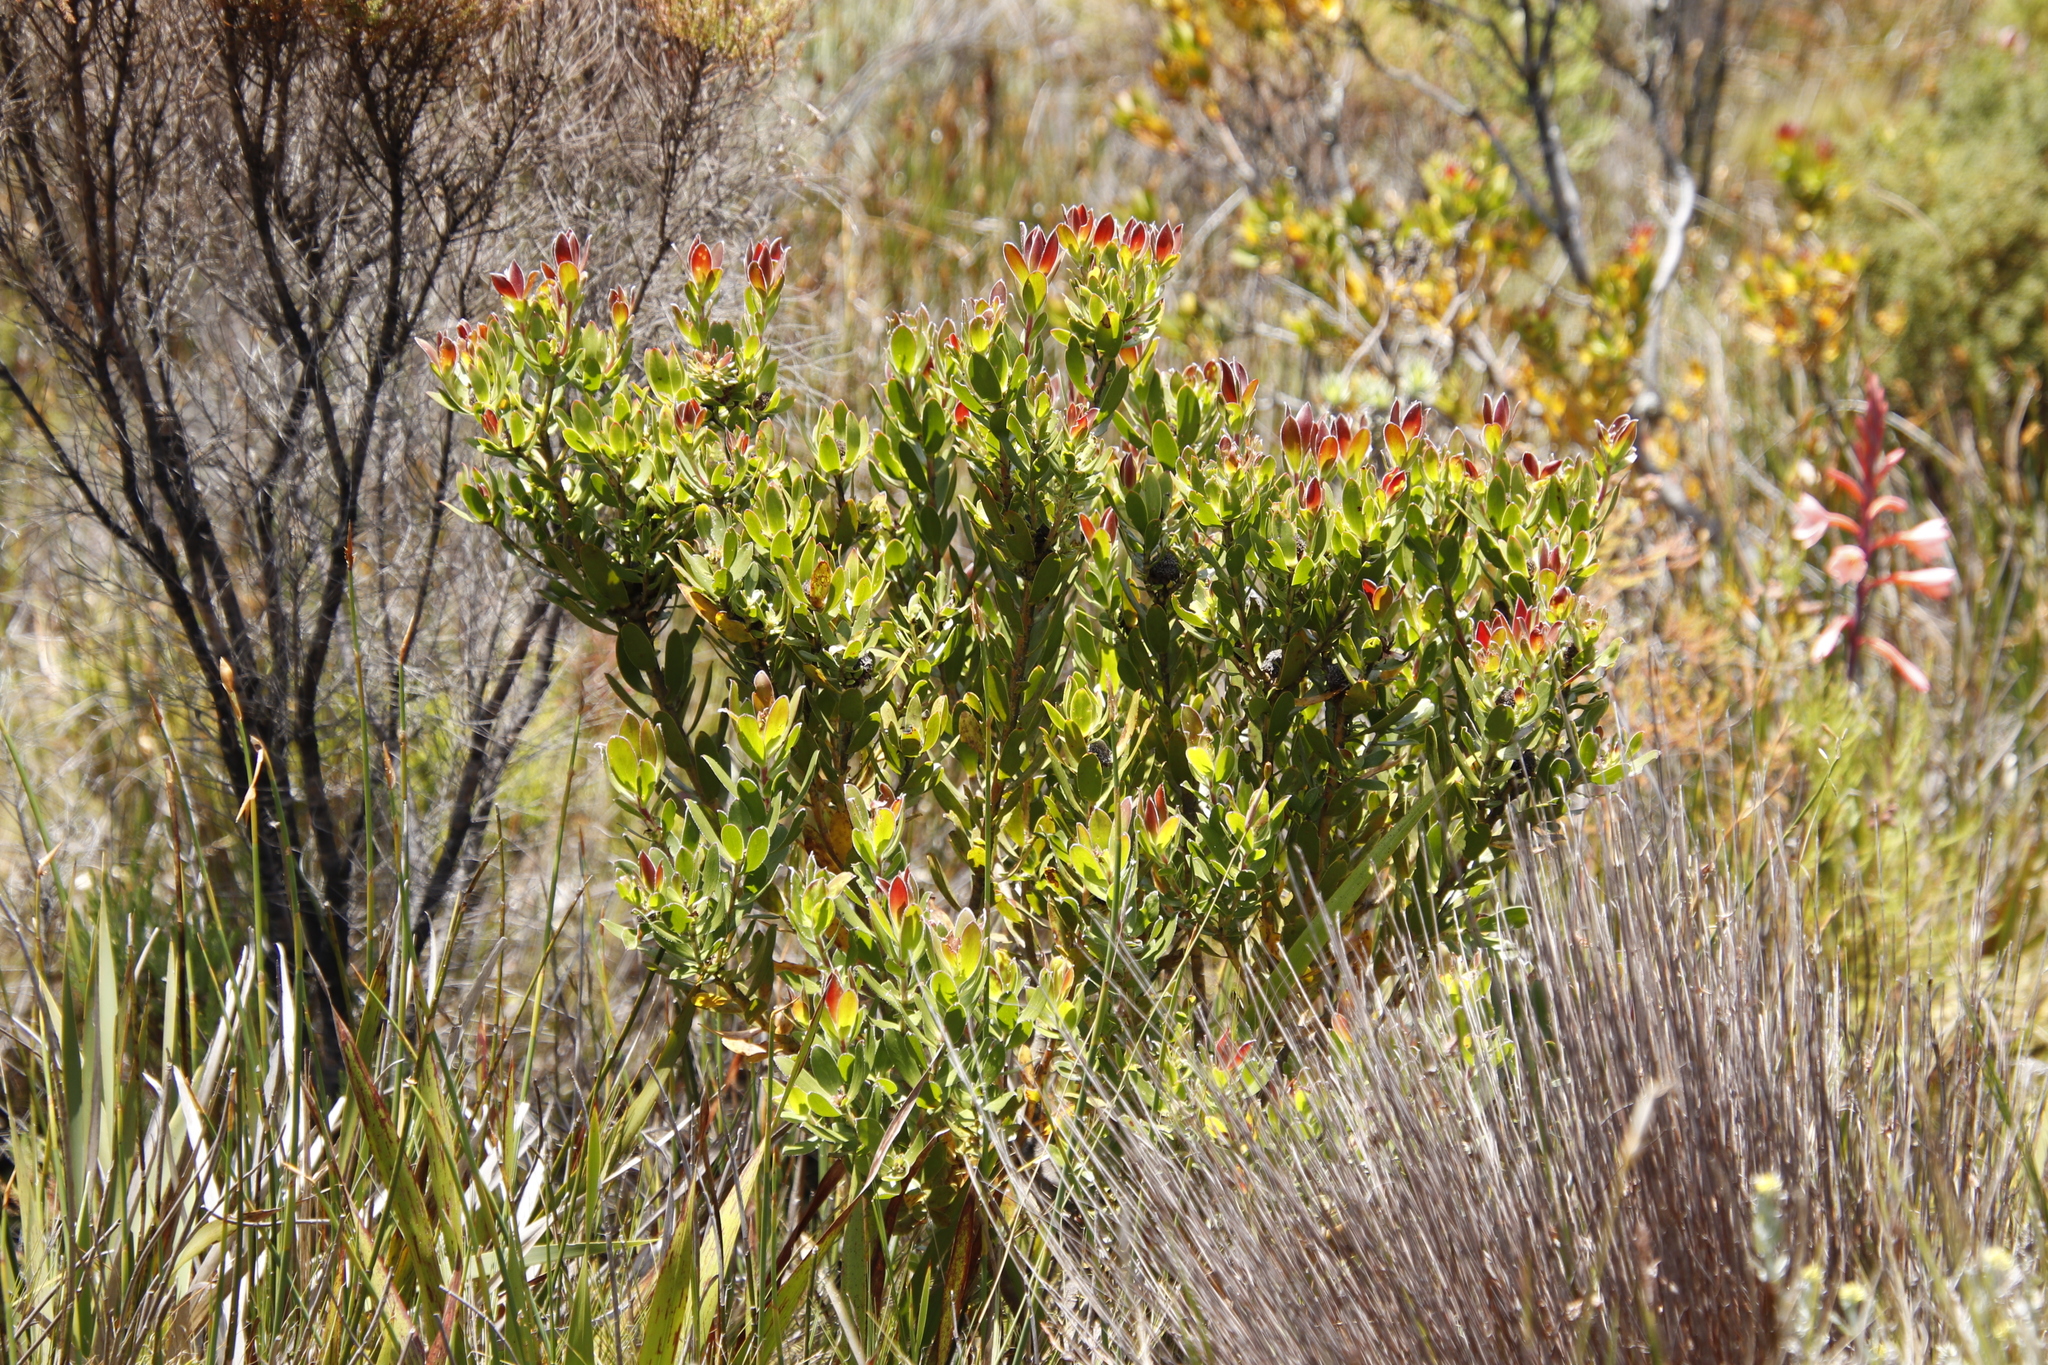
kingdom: Plantae
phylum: Tracheophyta
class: Magnoliopsida
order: Proteales
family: Proteaceae
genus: Leucadendron
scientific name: Leucadendron strobilinum
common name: Mountain rose
